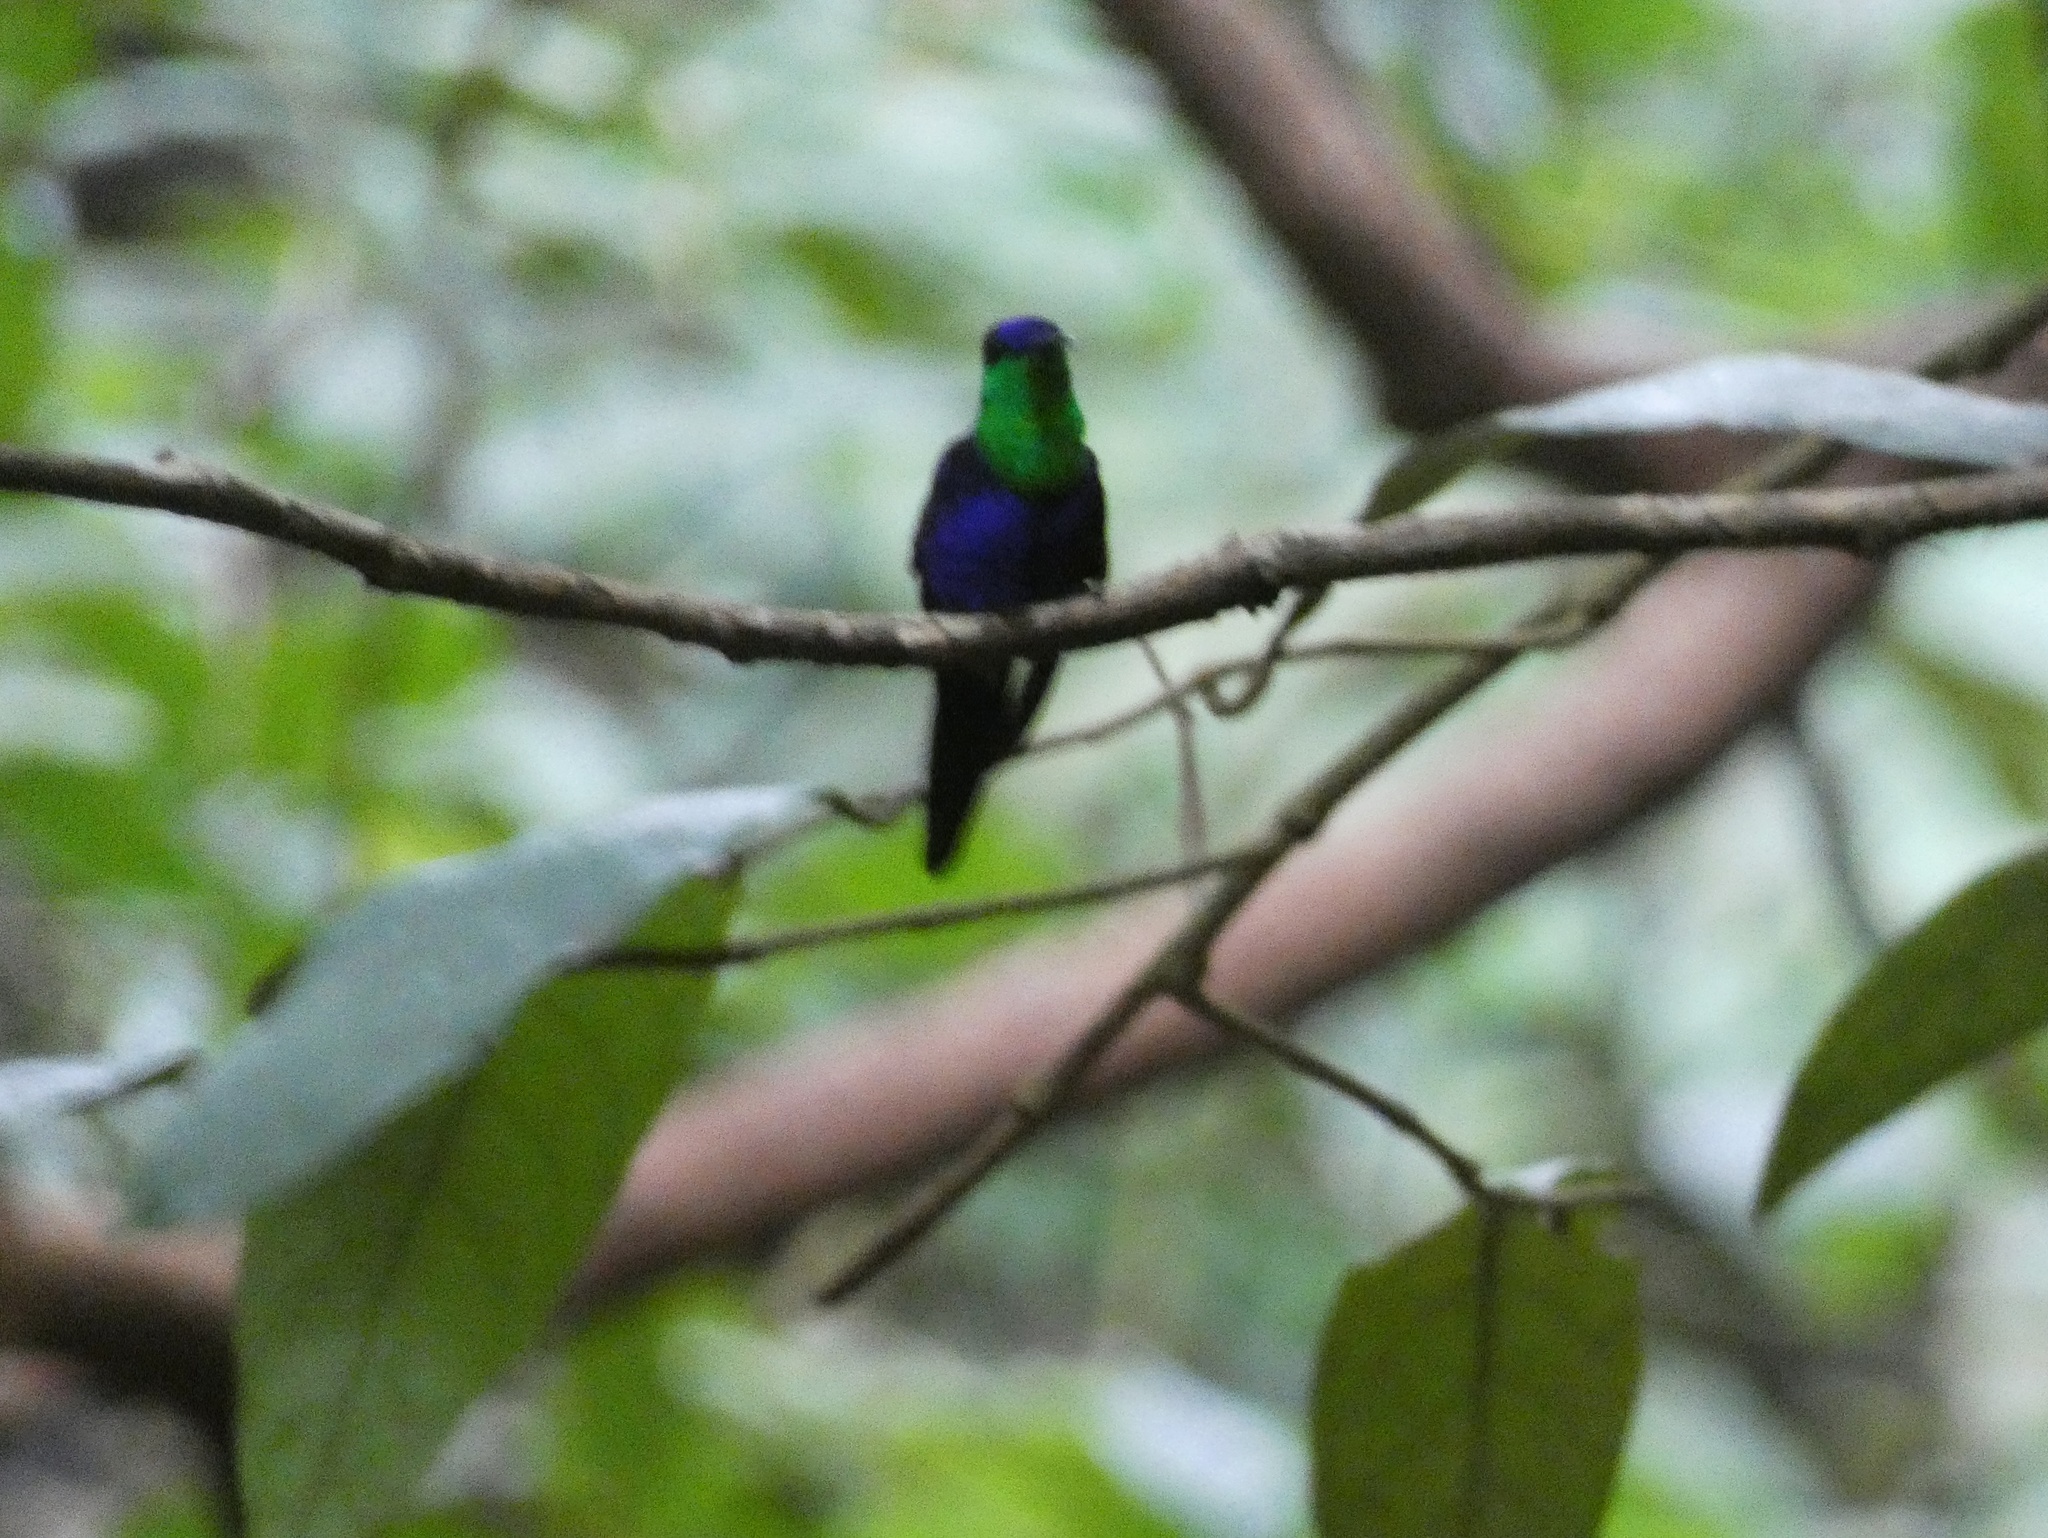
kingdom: Animalia
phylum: Chordata
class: Aves
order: Apodiformes
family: Trochilidae
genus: Thalurania
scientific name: Thalurania colombica
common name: Crowned woodnymph
